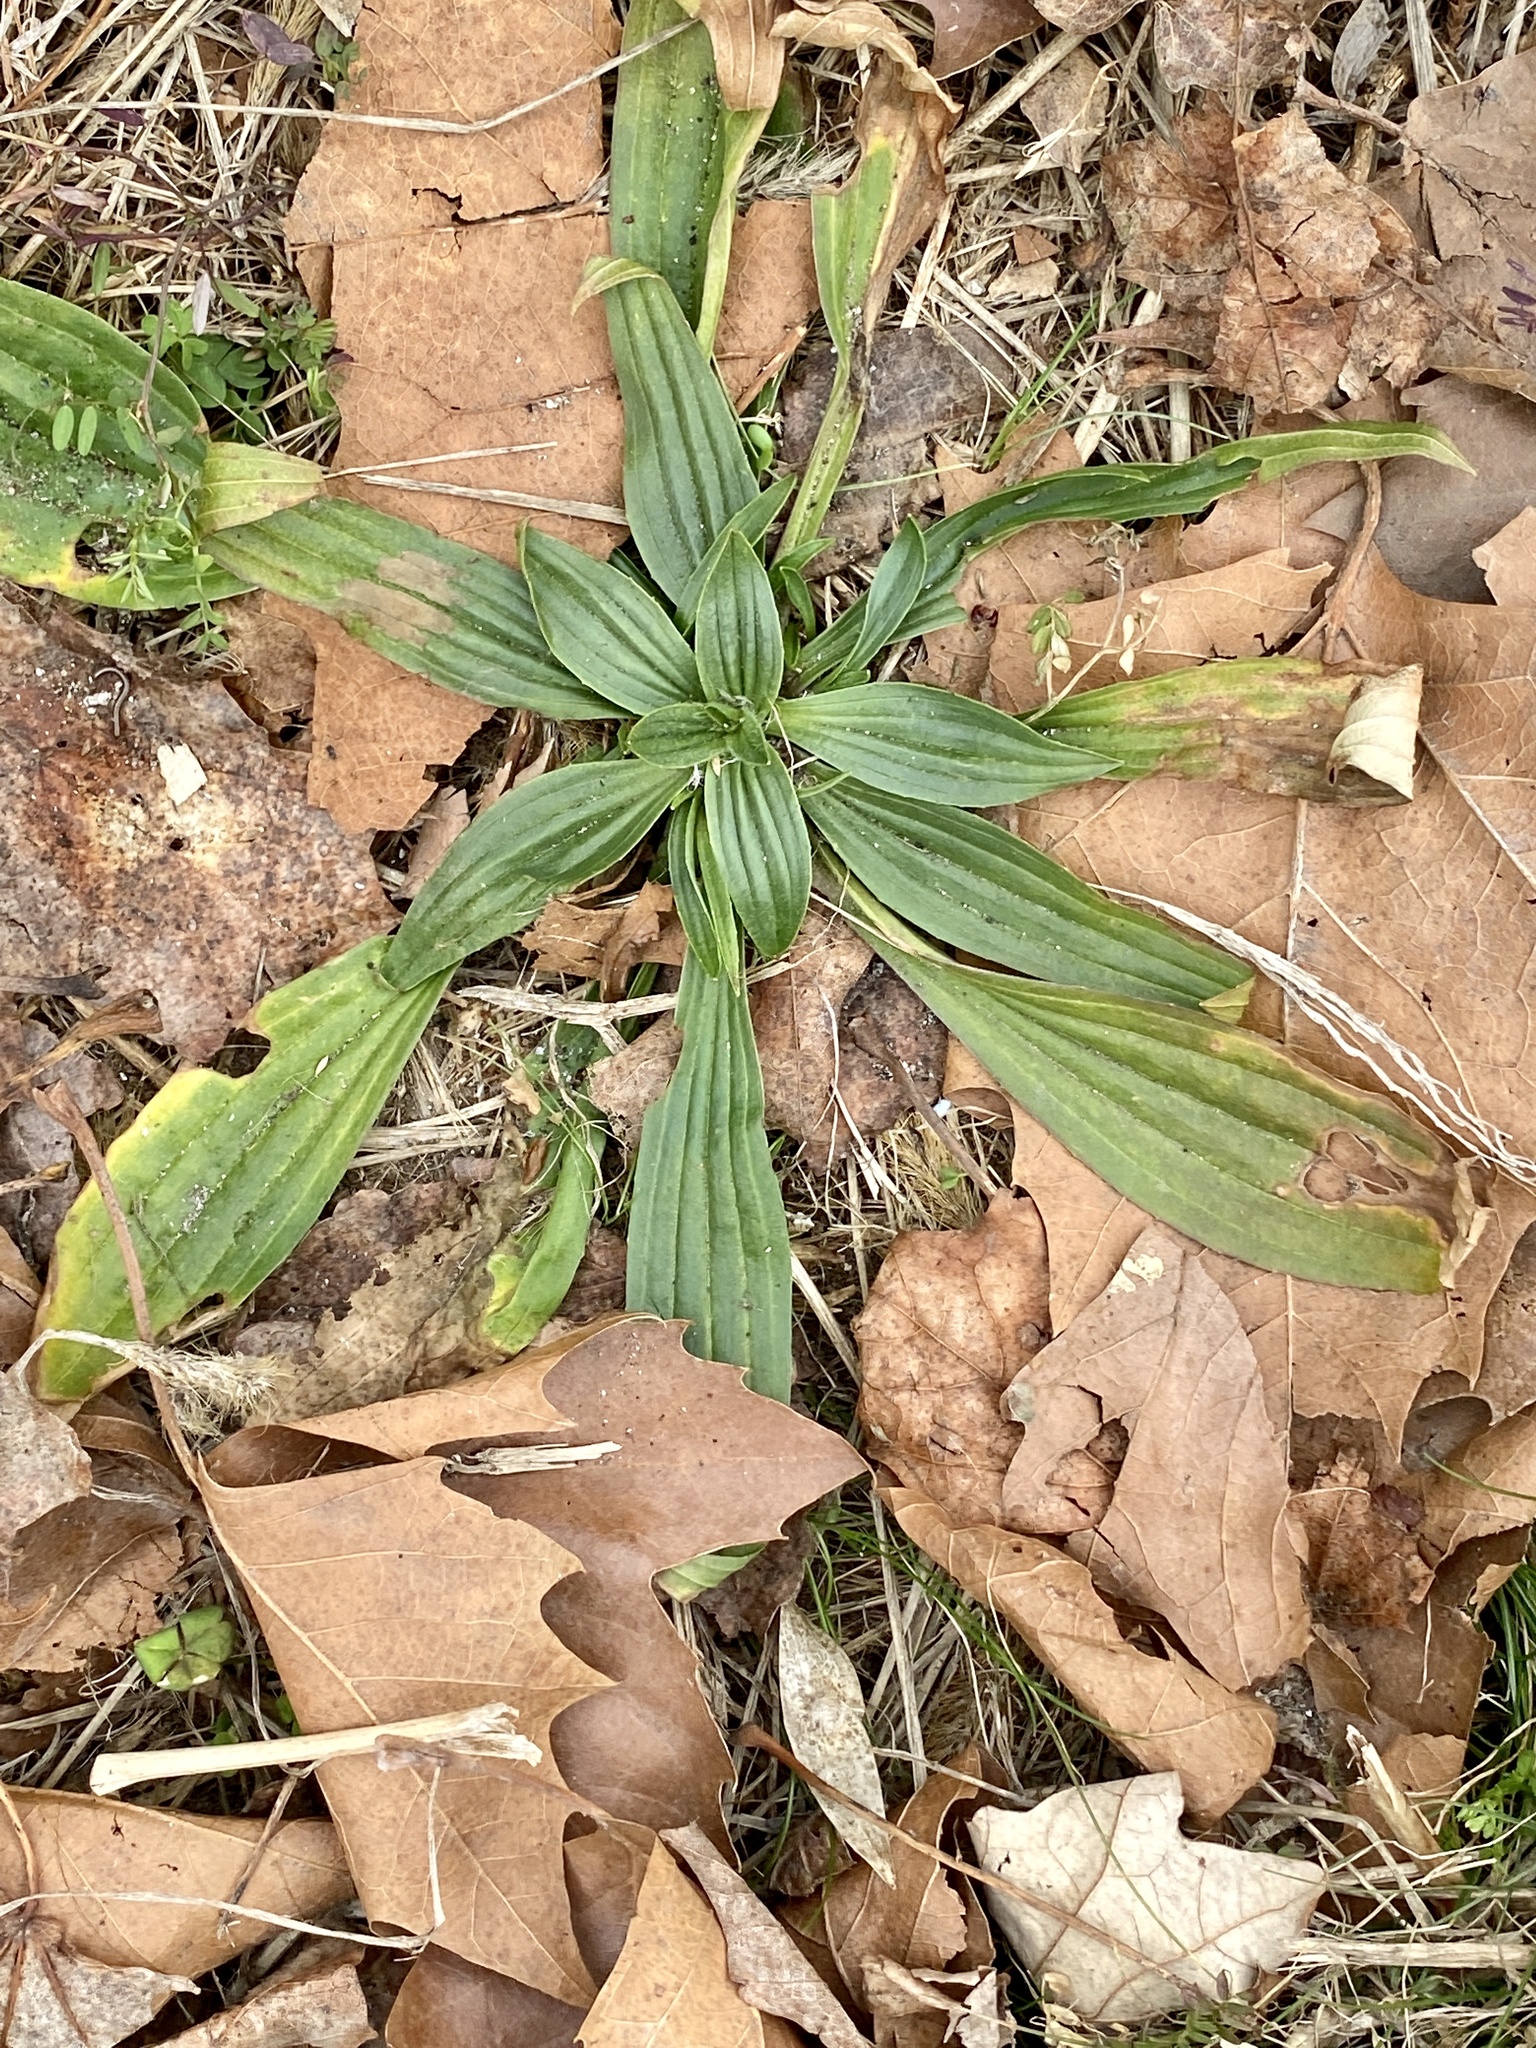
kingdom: Plantae
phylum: Tracheophyta
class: Magnoliopsida
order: Lamiales
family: Plantaginaceae
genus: Plantago
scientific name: Plantago lanceolata
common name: Ribwort plantain
